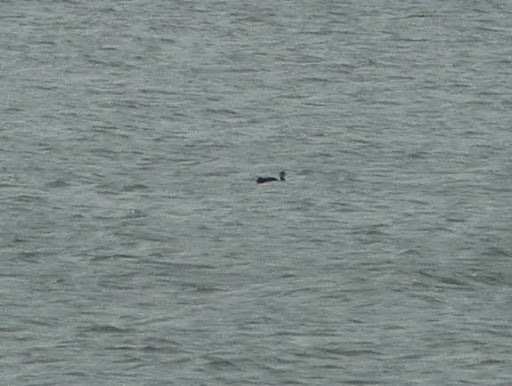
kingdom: Animalia
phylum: Chordata
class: Aves
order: Gaviiformes
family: Gaviidae
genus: Gavia
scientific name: Gavia
